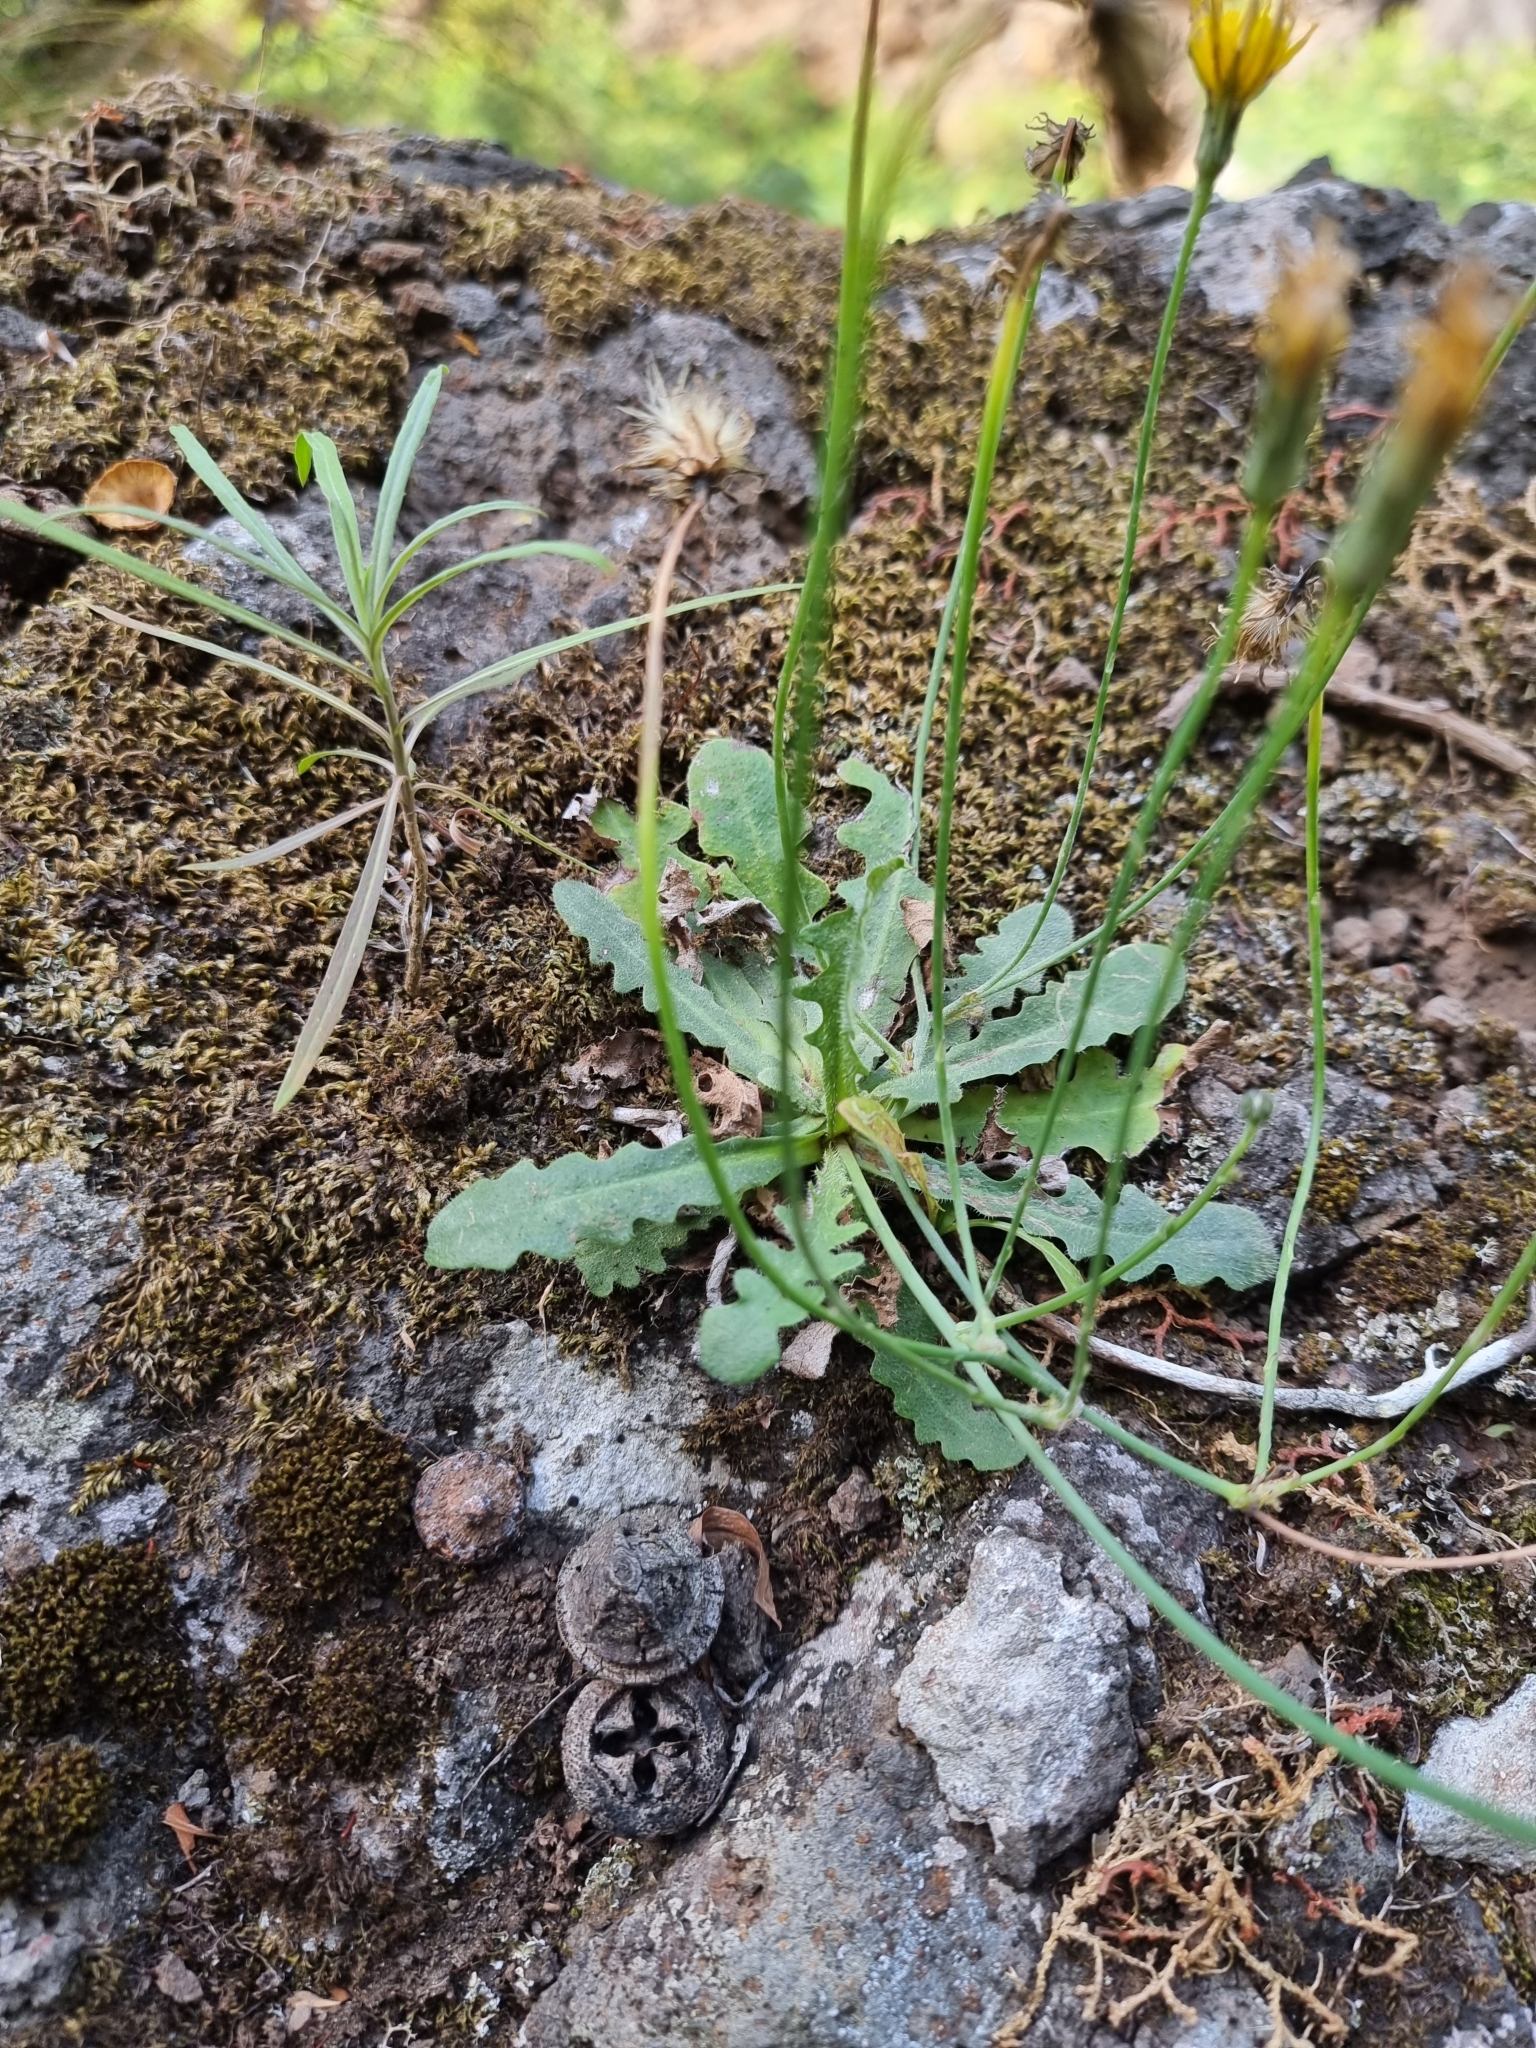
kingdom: Plantae
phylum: Tracheophyta
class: Magnoliopsida
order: Asterales
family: Asteraceae
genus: Hypochaeris
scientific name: Hypochaeris radicata
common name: Flatweed
